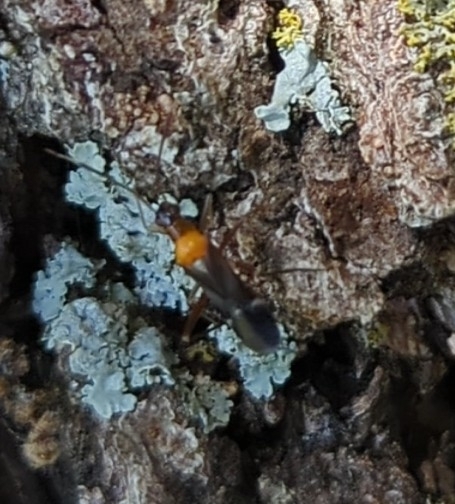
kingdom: Animalia
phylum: Arthropoda
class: Insecta
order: Hemiptera
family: Miridae
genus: Pseudoxenetus
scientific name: Pseudoxenetus regalis
